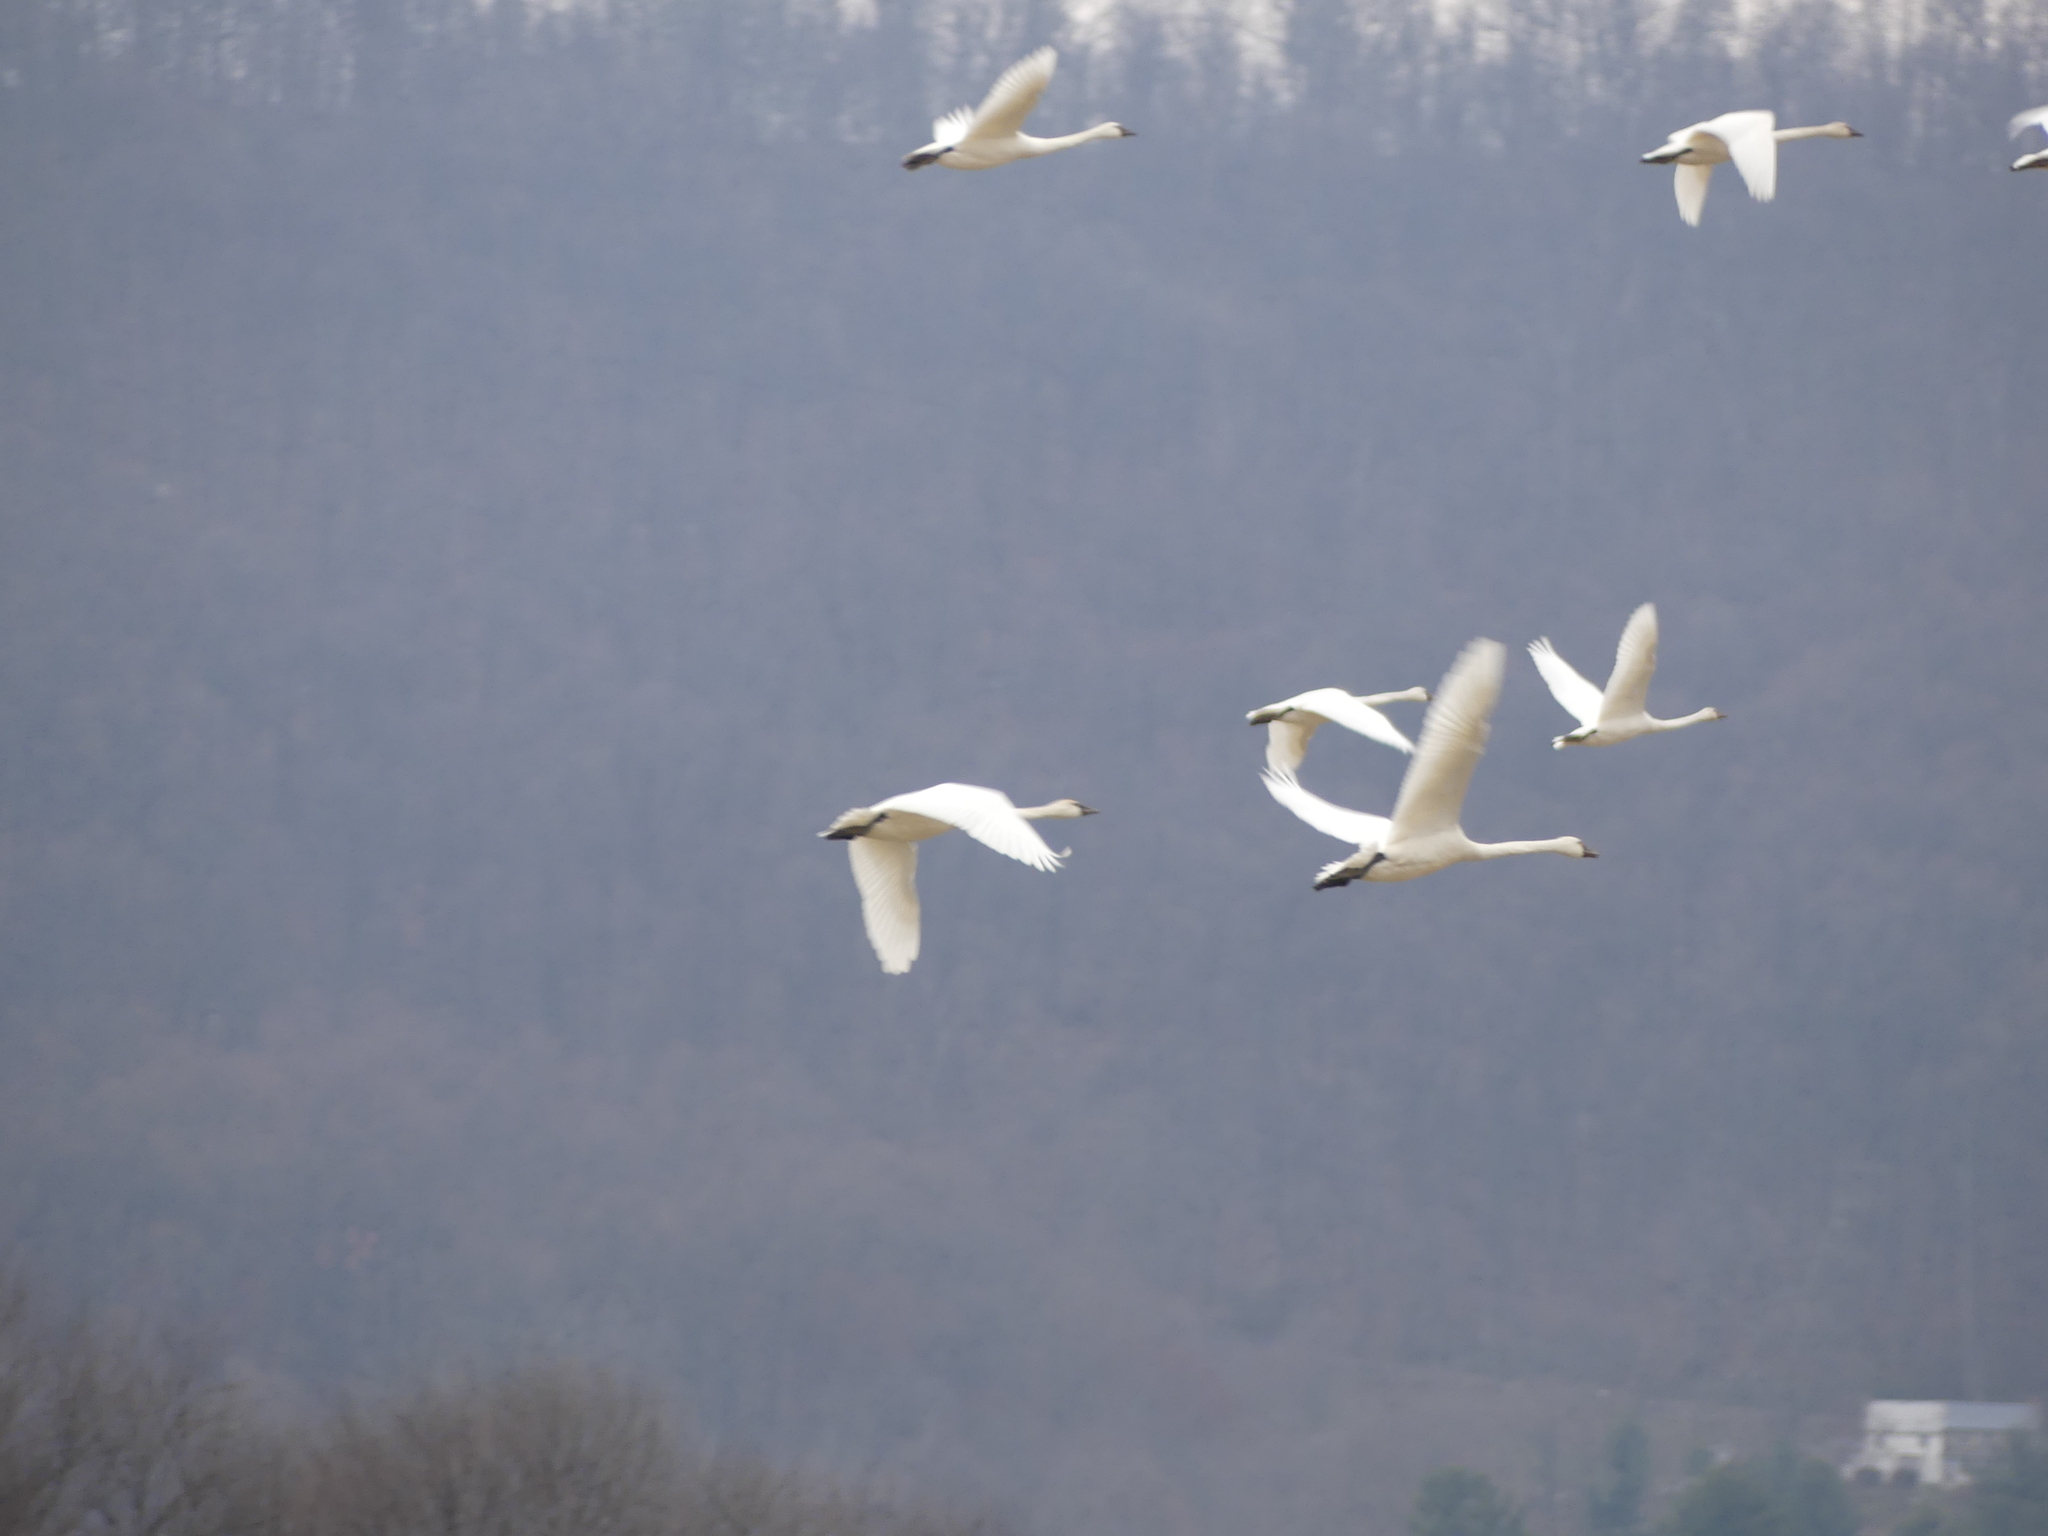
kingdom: Animalia
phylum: Chordata
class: Aves
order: Anseriformes
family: Anatidae
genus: Cygnus
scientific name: Cygnus columbianus
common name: Tundra swan
